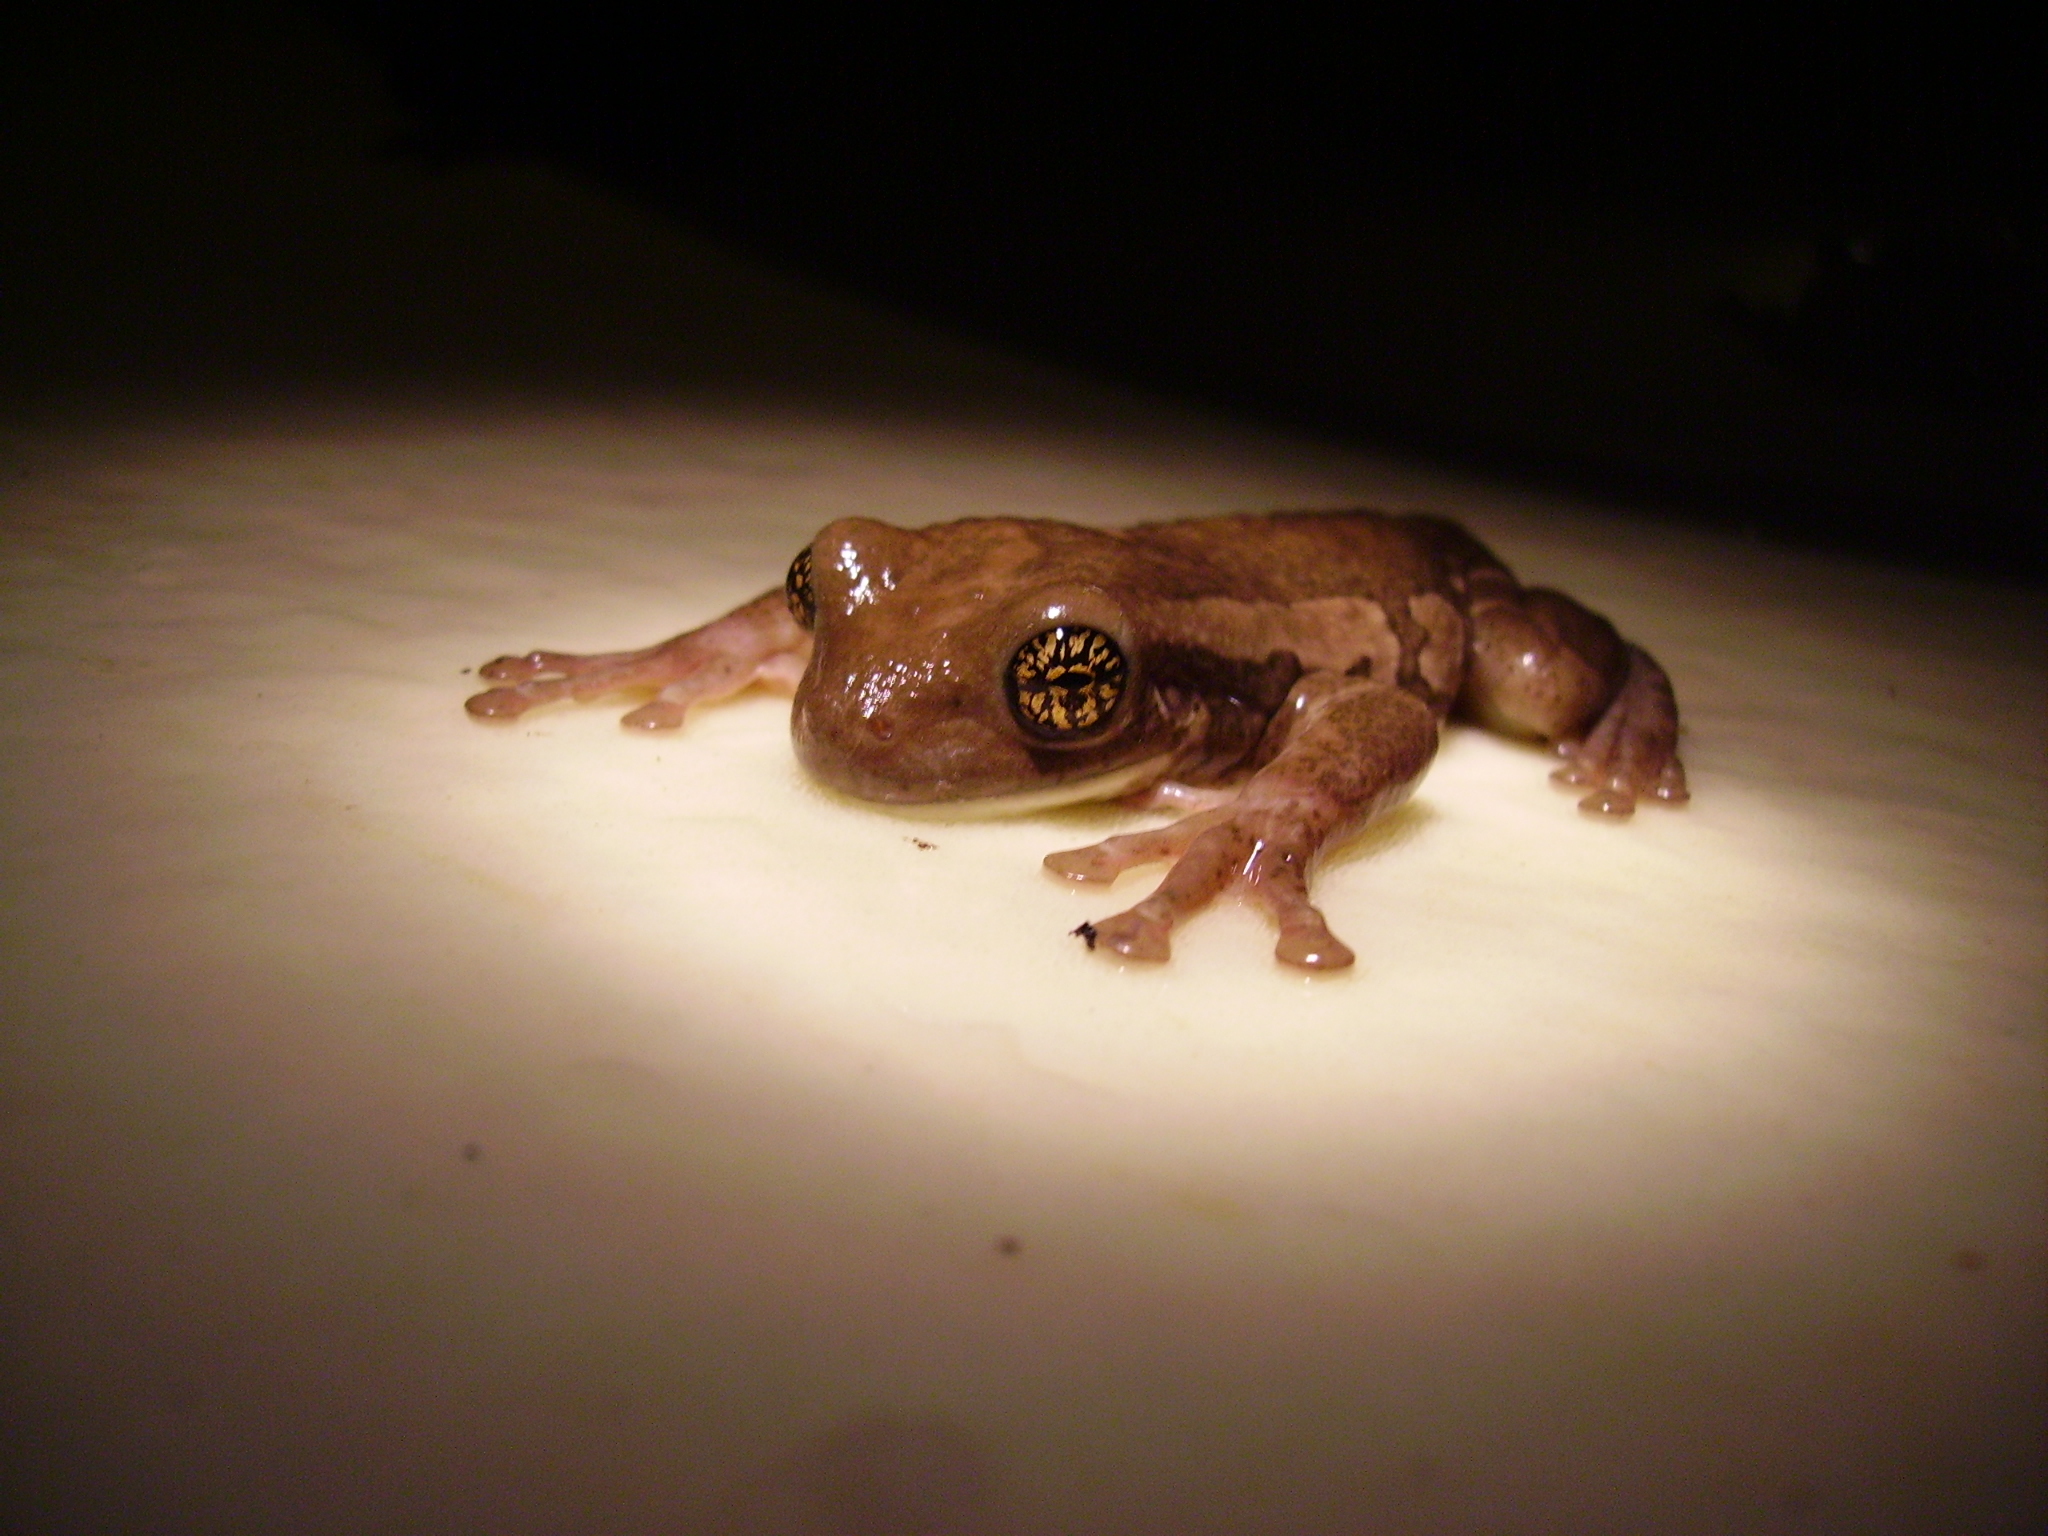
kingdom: Animalia
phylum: Chordata
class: Amphibia
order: Anura
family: Hylidae
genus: Trachycephalus
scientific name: Trachycephalus vermiculatus
